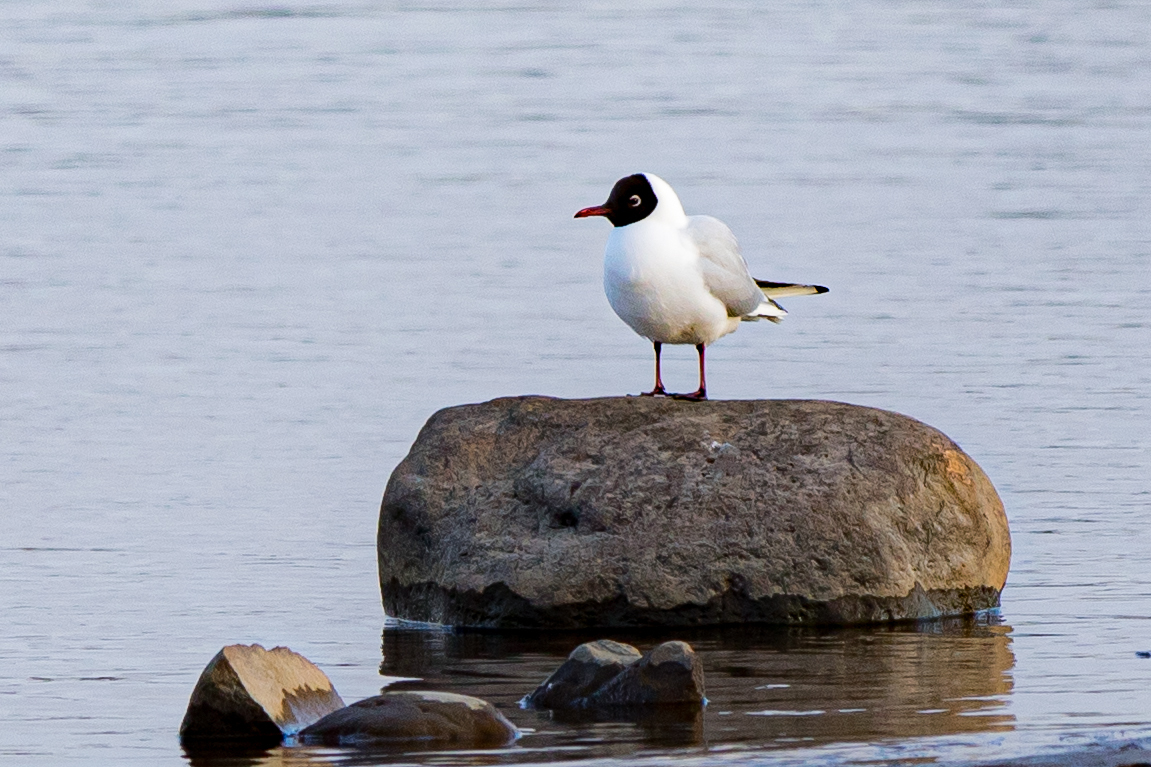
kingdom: Animalia
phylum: Chordata
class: Aves
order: Charadriiformes
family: Laridae
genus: Chroicocephalus
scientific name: Chroicocephalus ridibundus
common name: Black-headed gull
